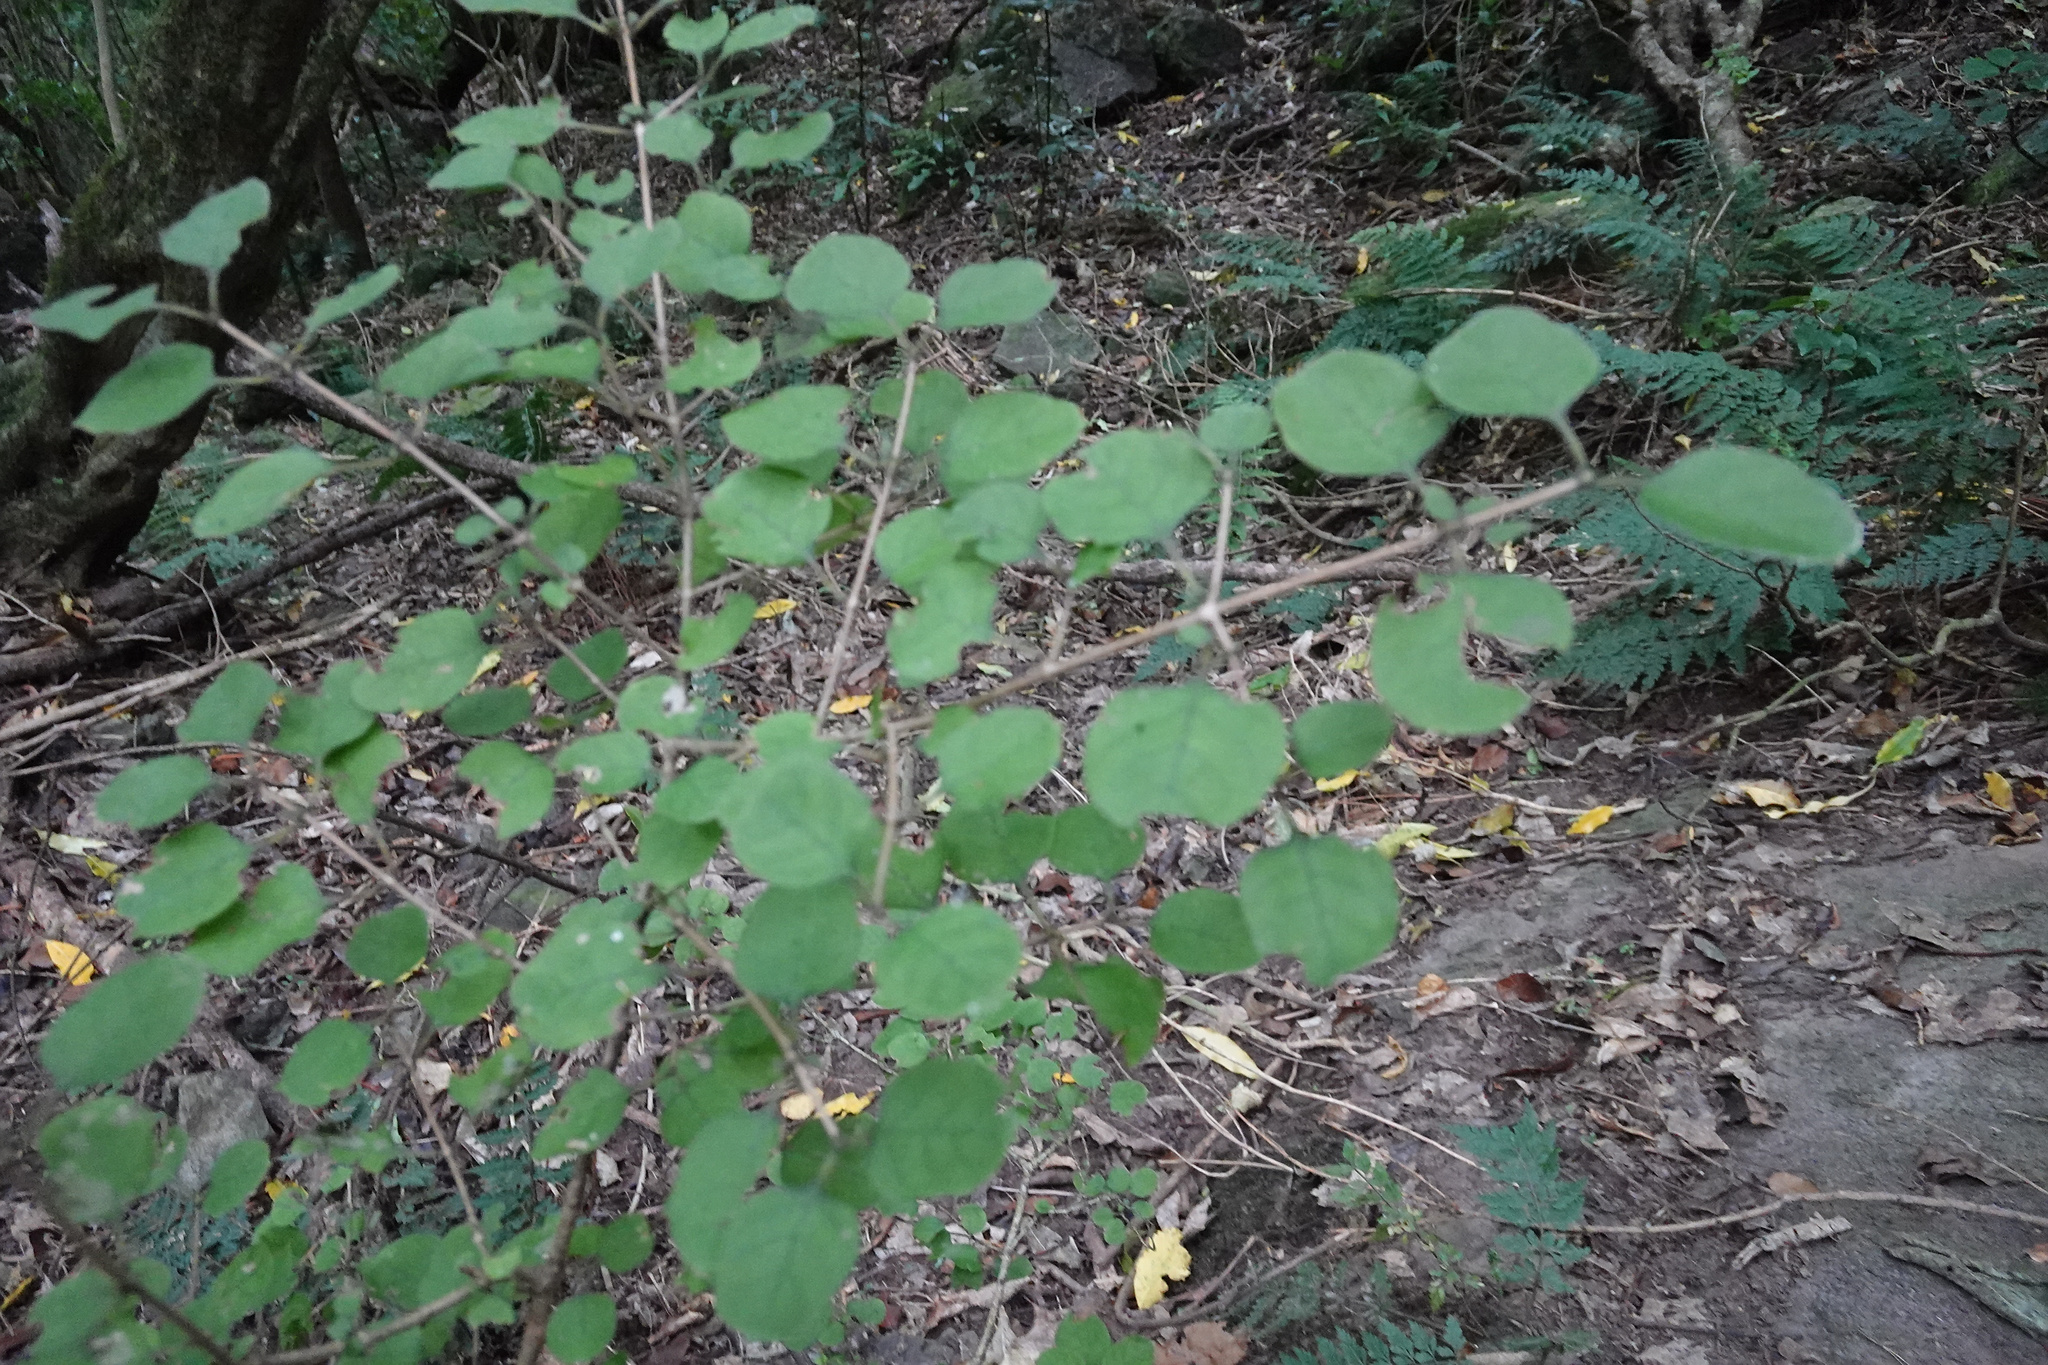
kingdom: Plantae
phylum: Tracheophyta
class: Magnoliopsida
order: Gentianales
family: Rubiaceae
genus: Coprosma
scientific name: Coprosma rotundifolia
